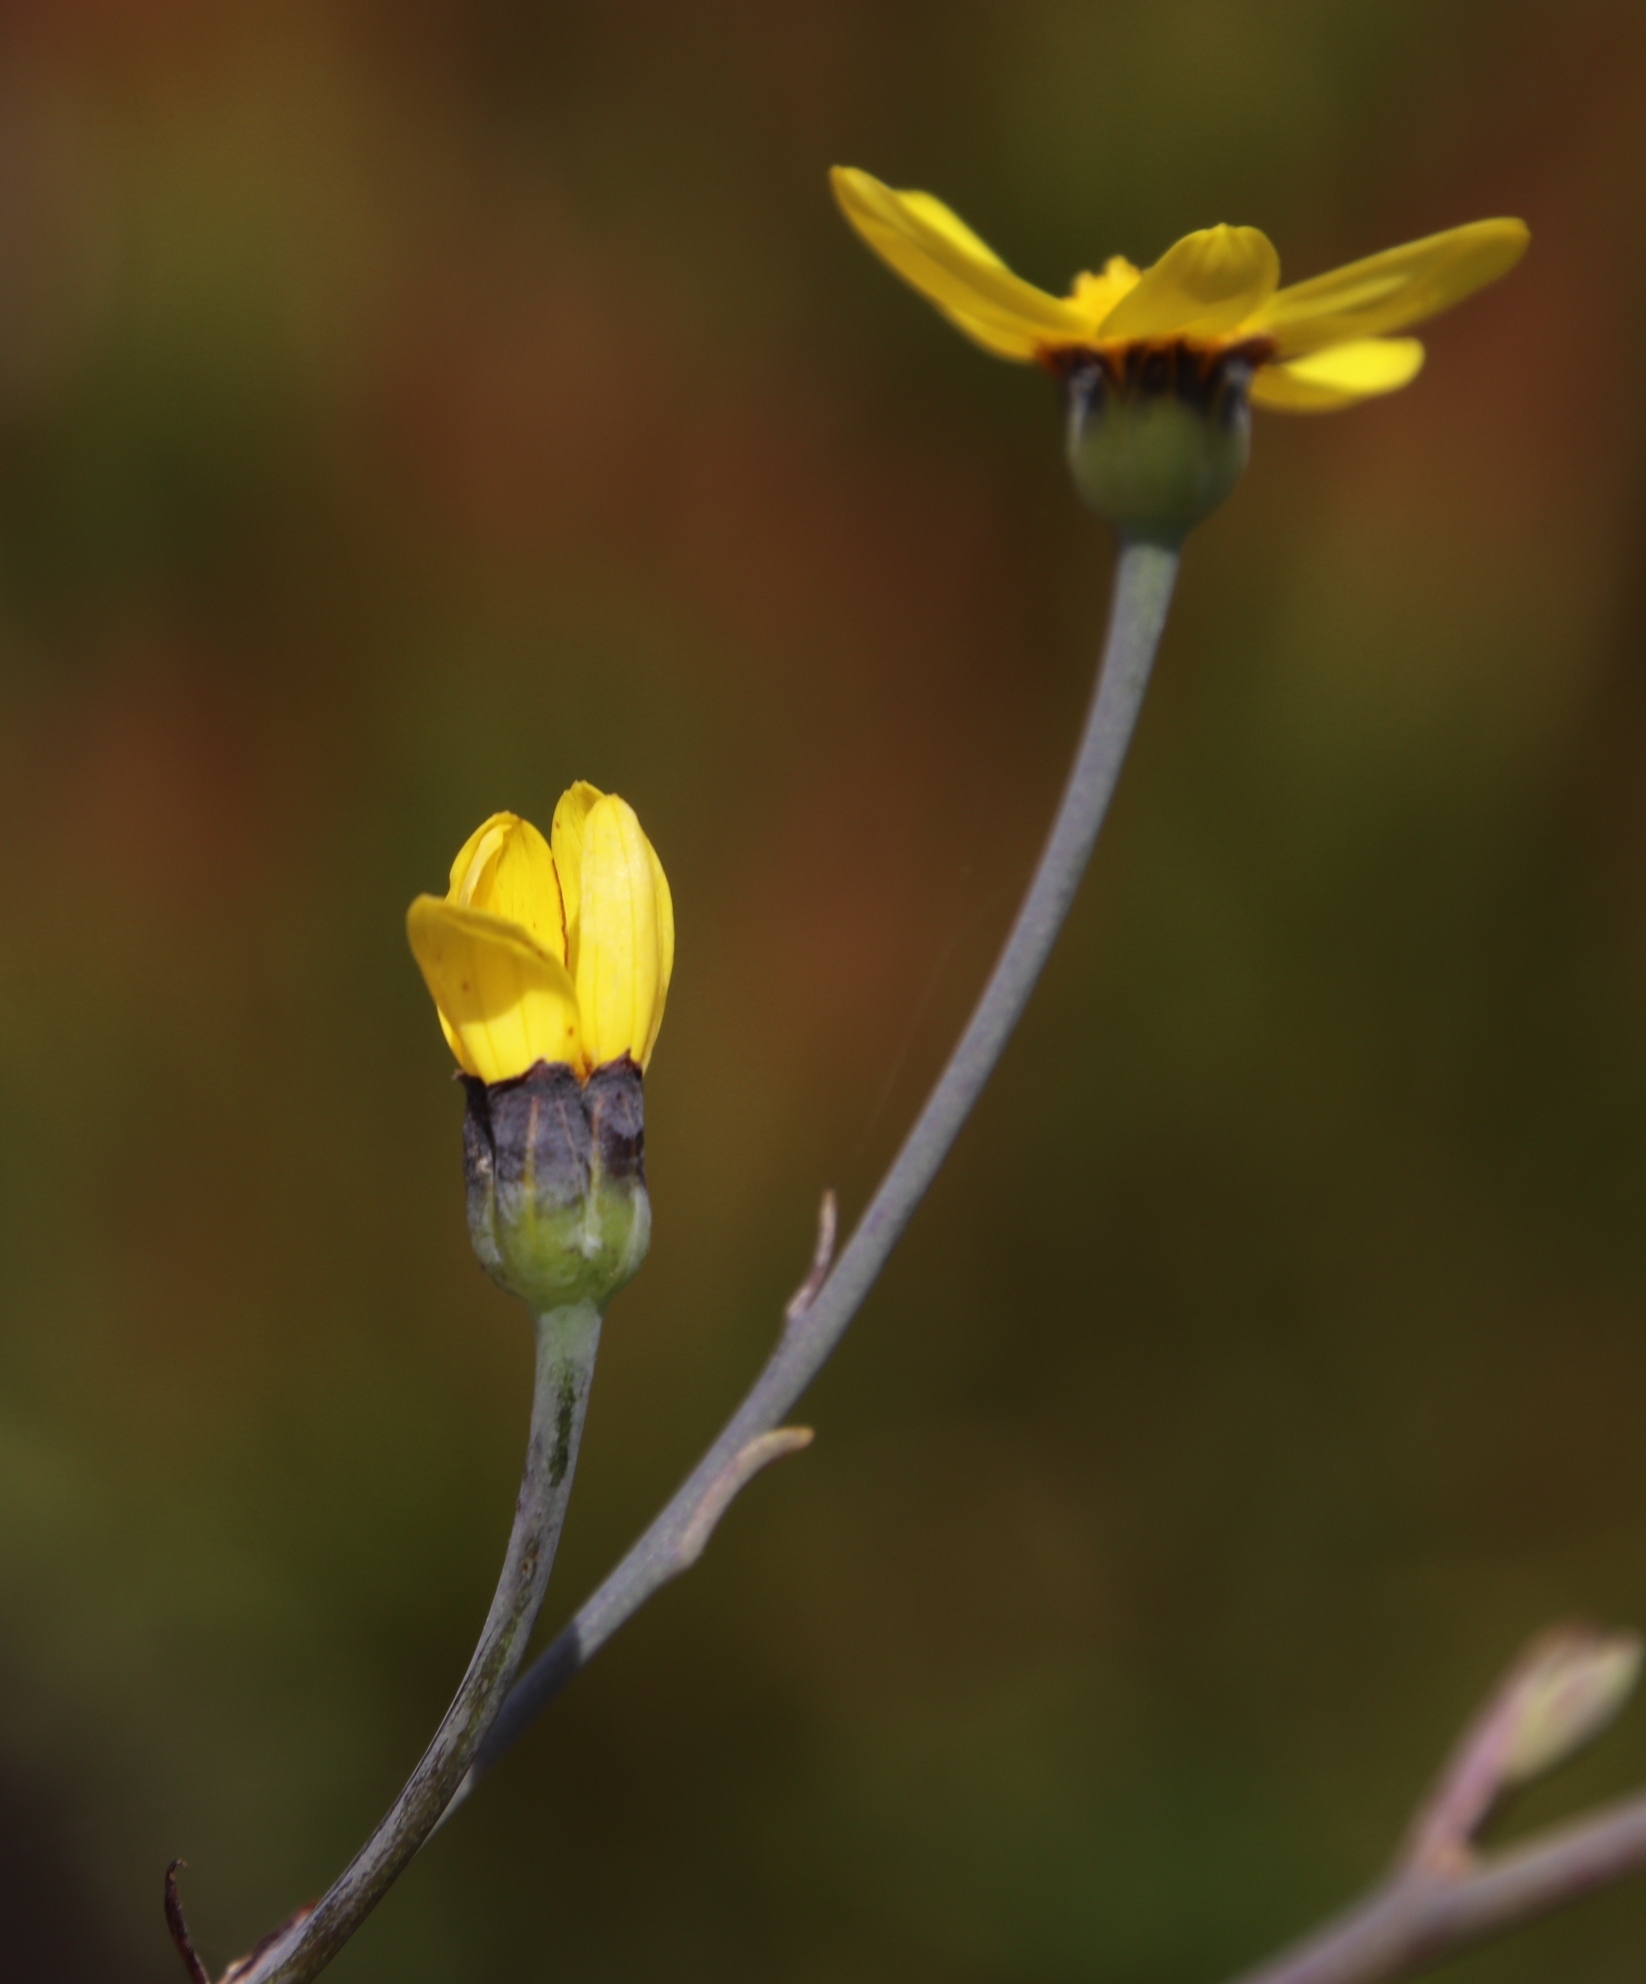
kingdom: Plantae
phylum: Tracheophyta
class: Magnoliopsida
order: Asterales
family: Asteraceae
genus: Othonna
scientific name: Othonna quinquedentata
